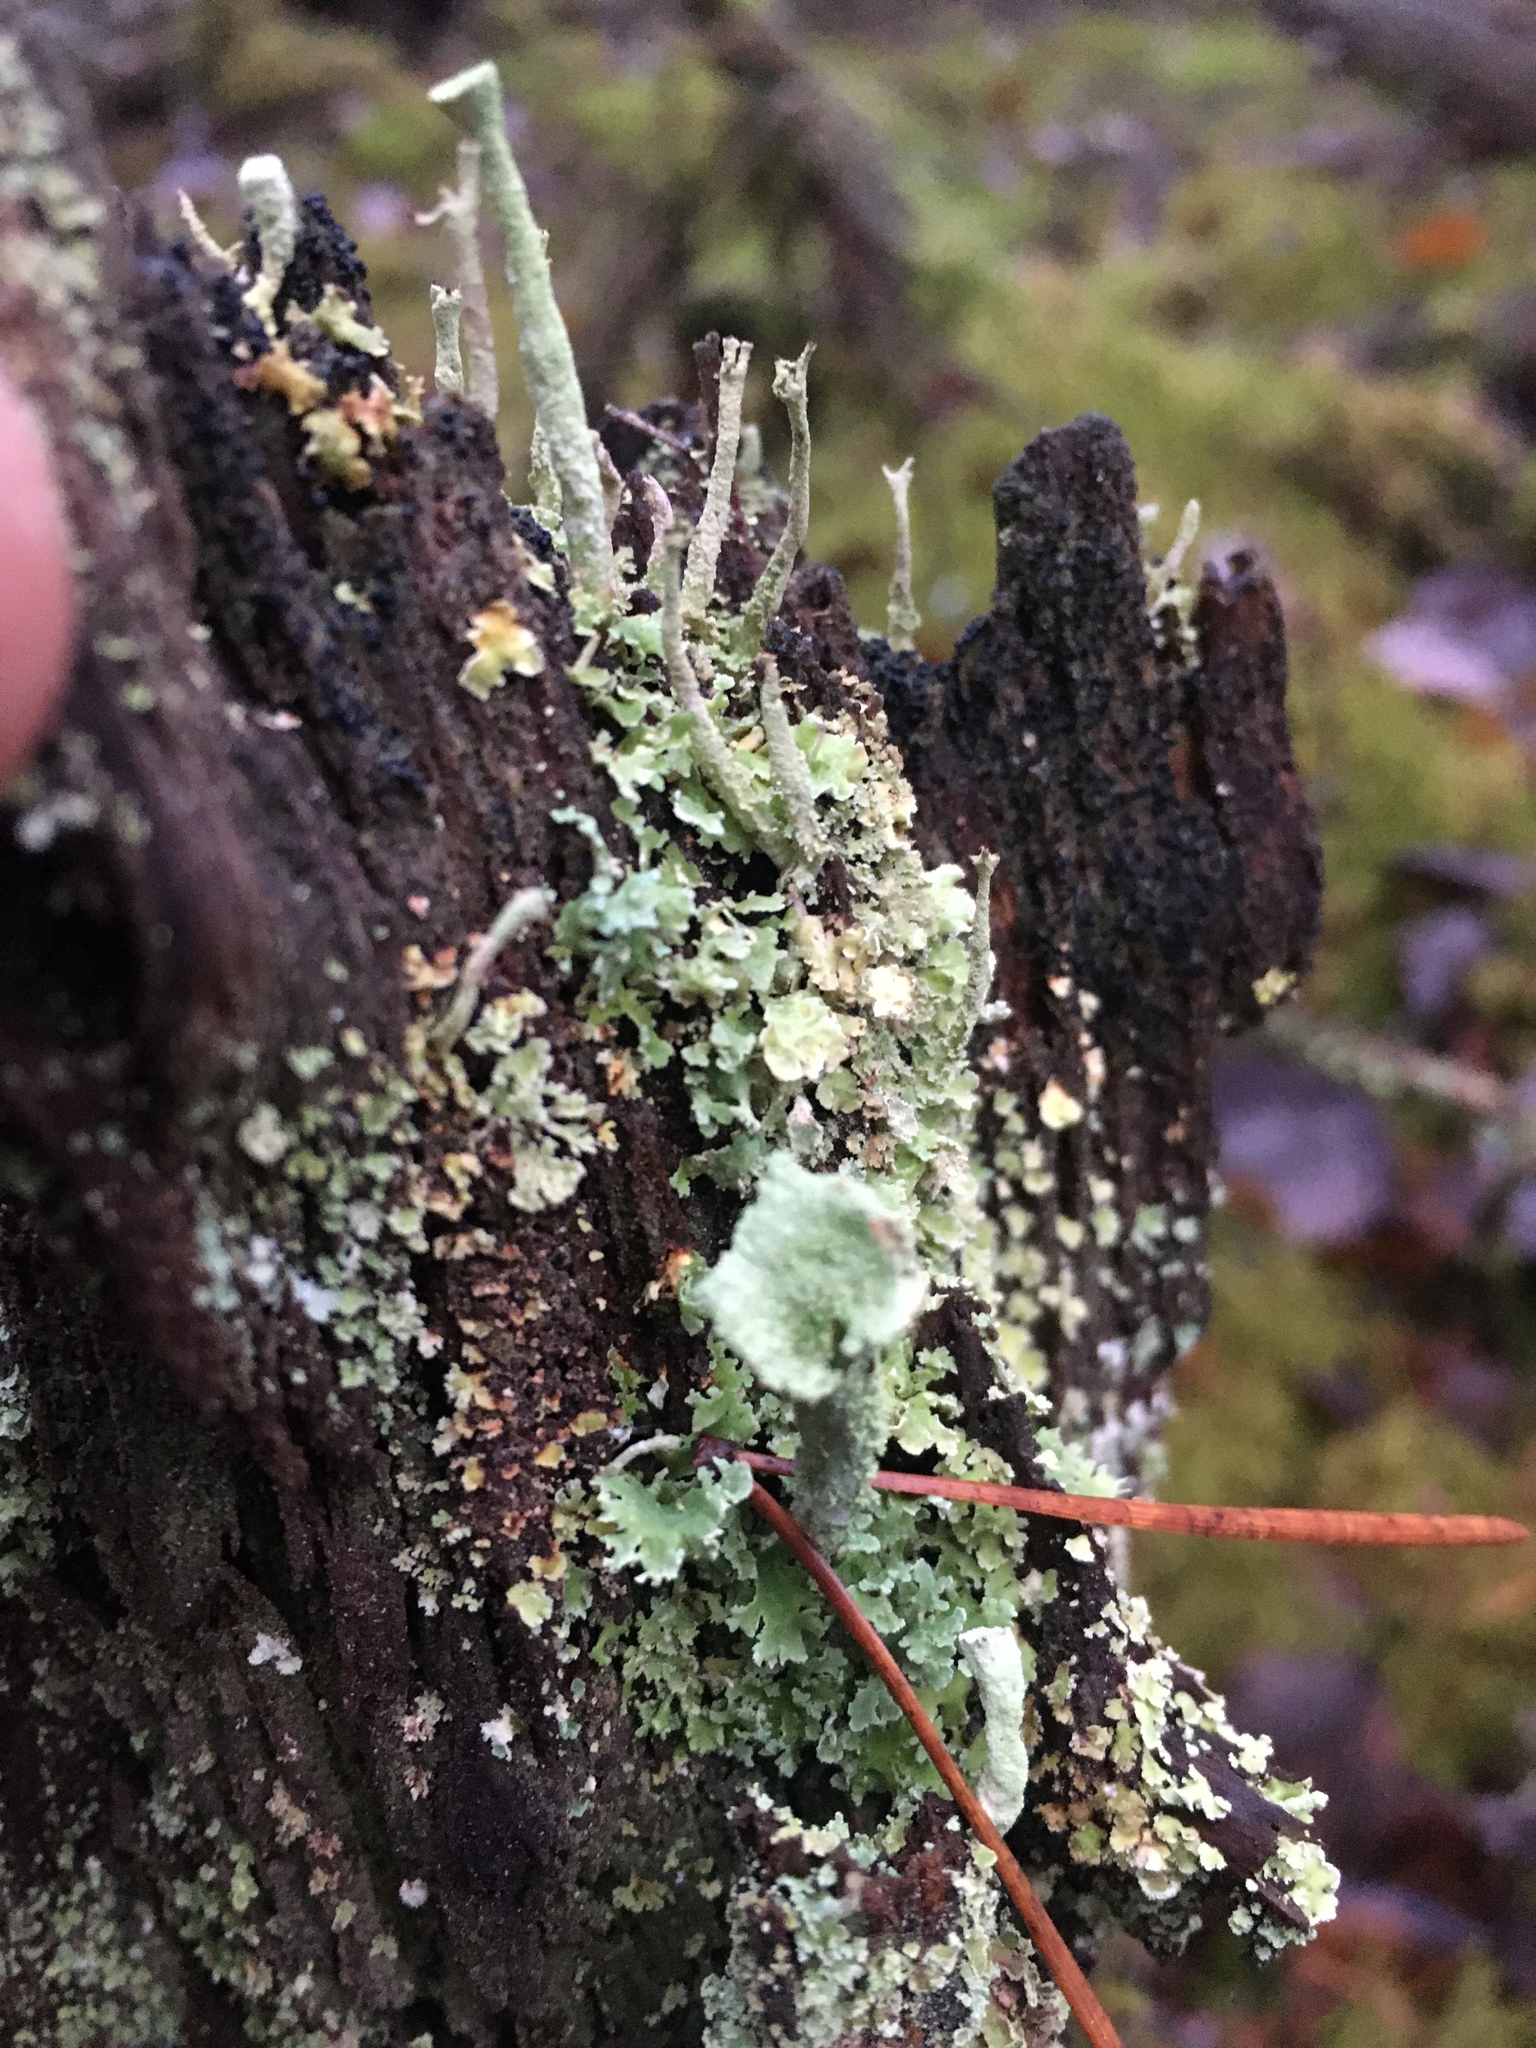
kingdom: Fungi
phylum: Ascomycota
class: Lecanoromycetes
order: Lecanorales
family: Cladoniaceae
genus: Cladonia
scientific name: Cladonia
